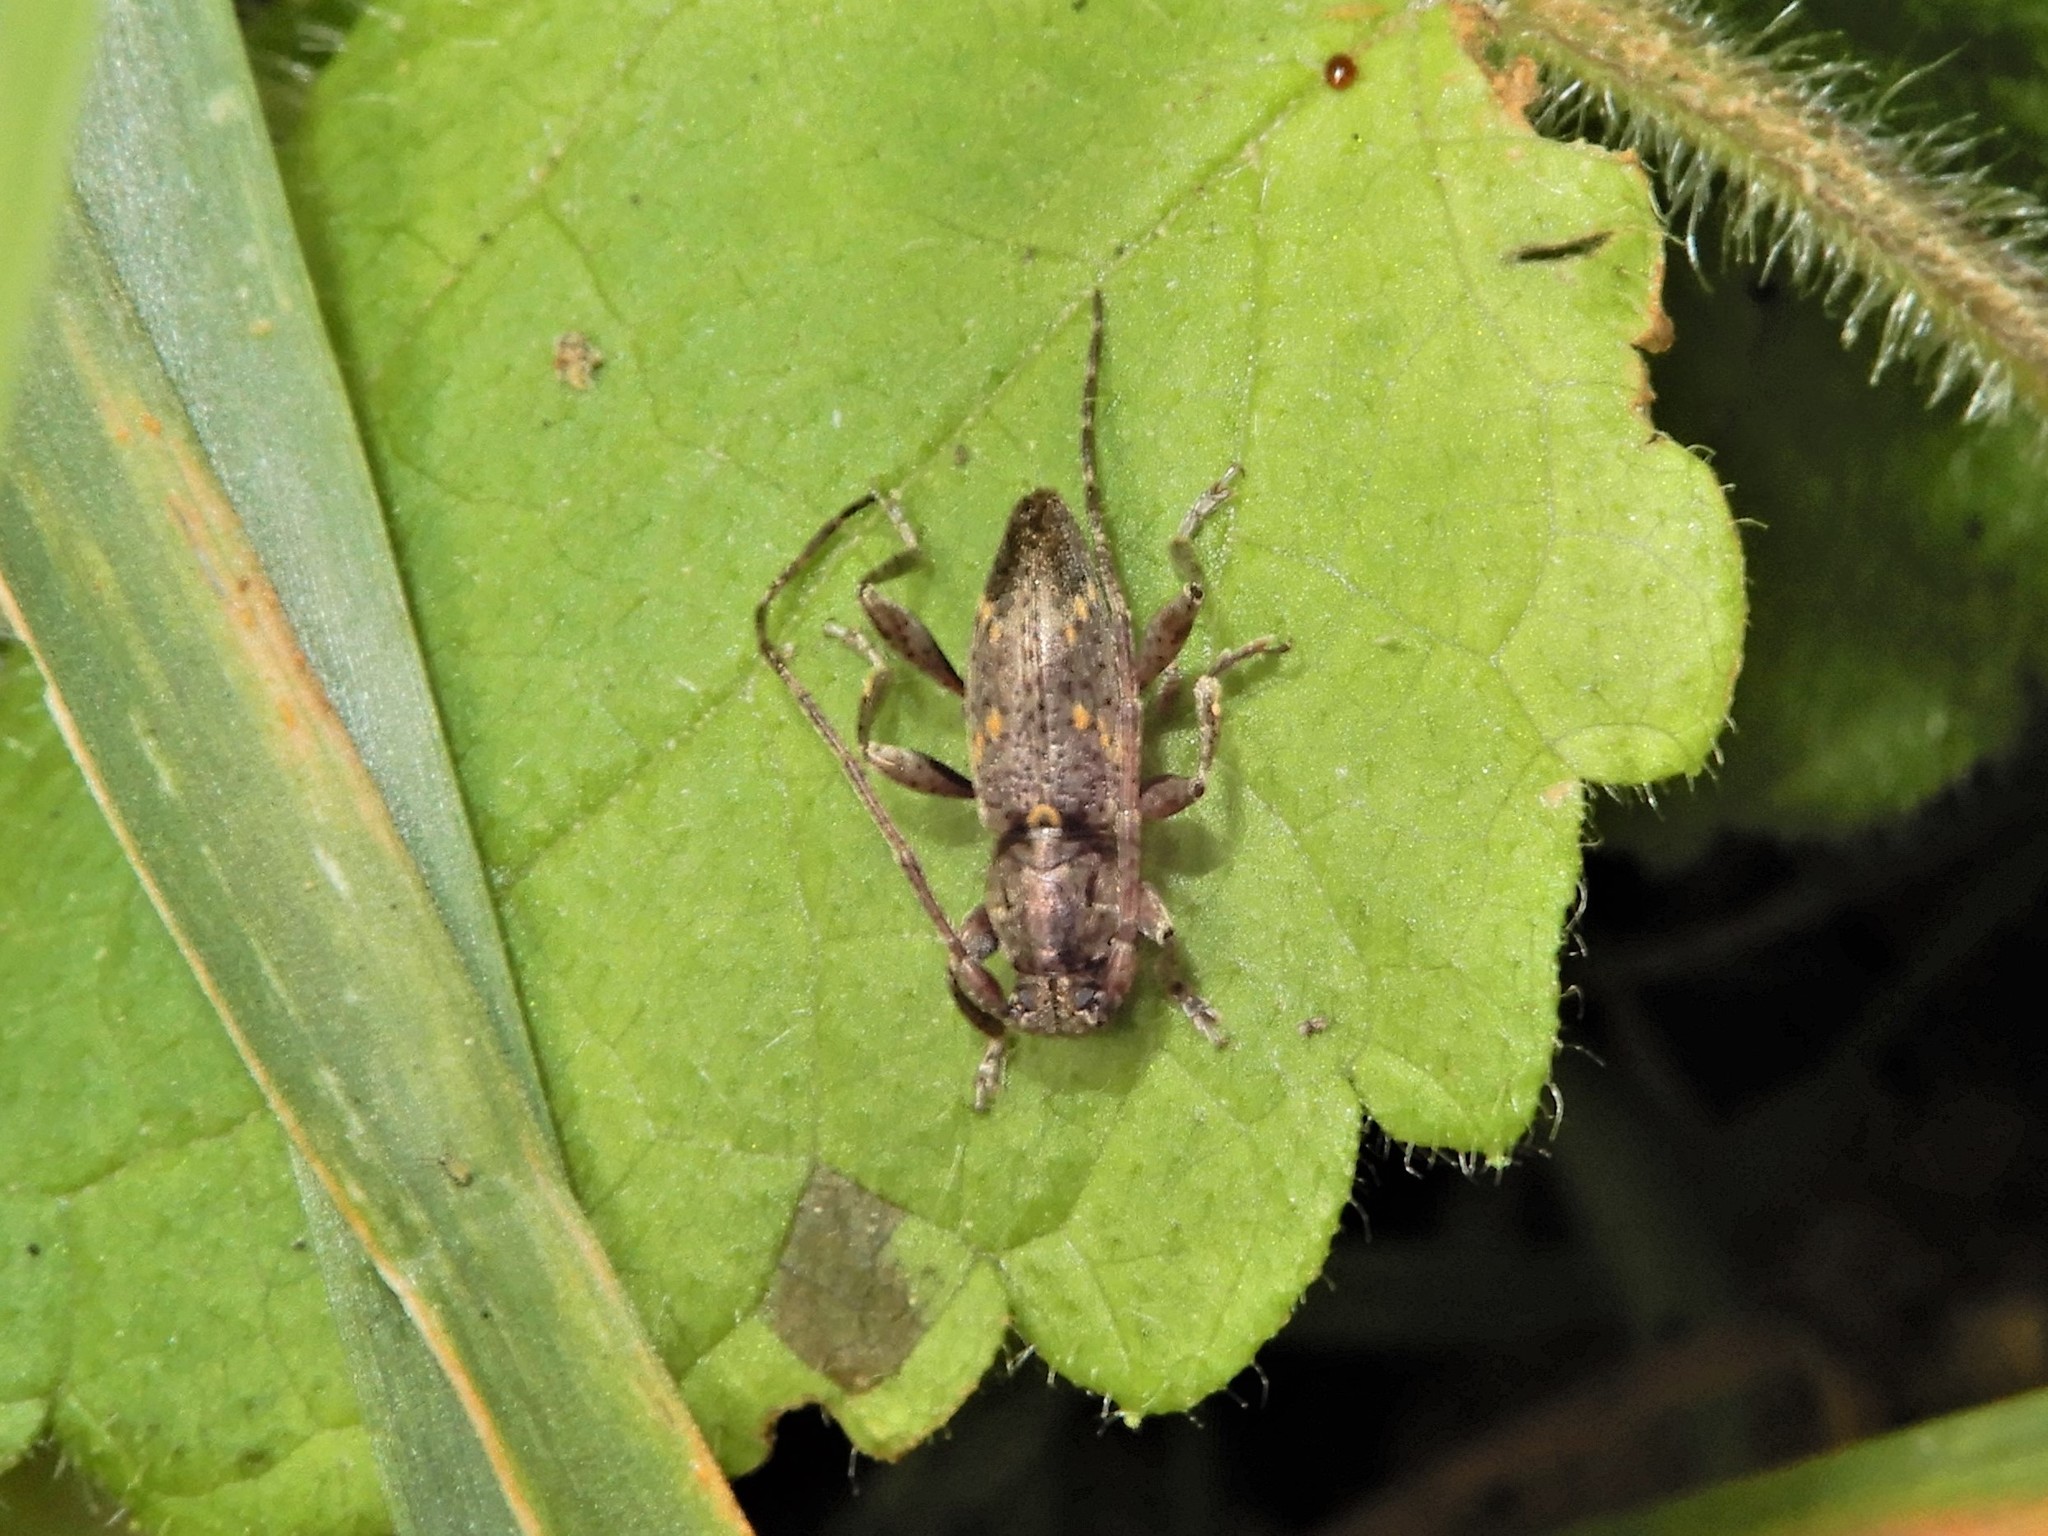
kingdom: Animalia
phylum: Arthropoda
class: Insecta
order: Coleoptera
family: Cerambycidae
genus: Xylotoles
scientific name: Xylotoles griseus
